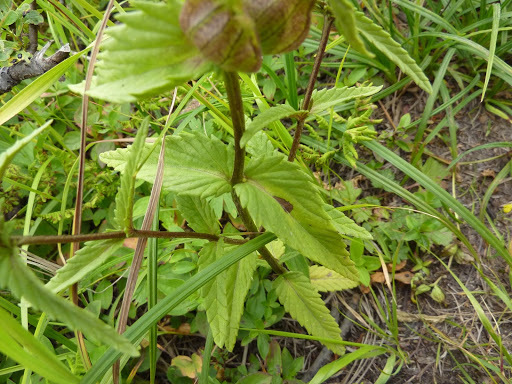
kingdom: Plantae
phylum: Tracheophyta
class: Magnoliopsida
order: Lamiales
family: Orobanchaceae
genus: Rhinanthus
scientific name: Rhinanthus minor
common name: Yellow-rattle
